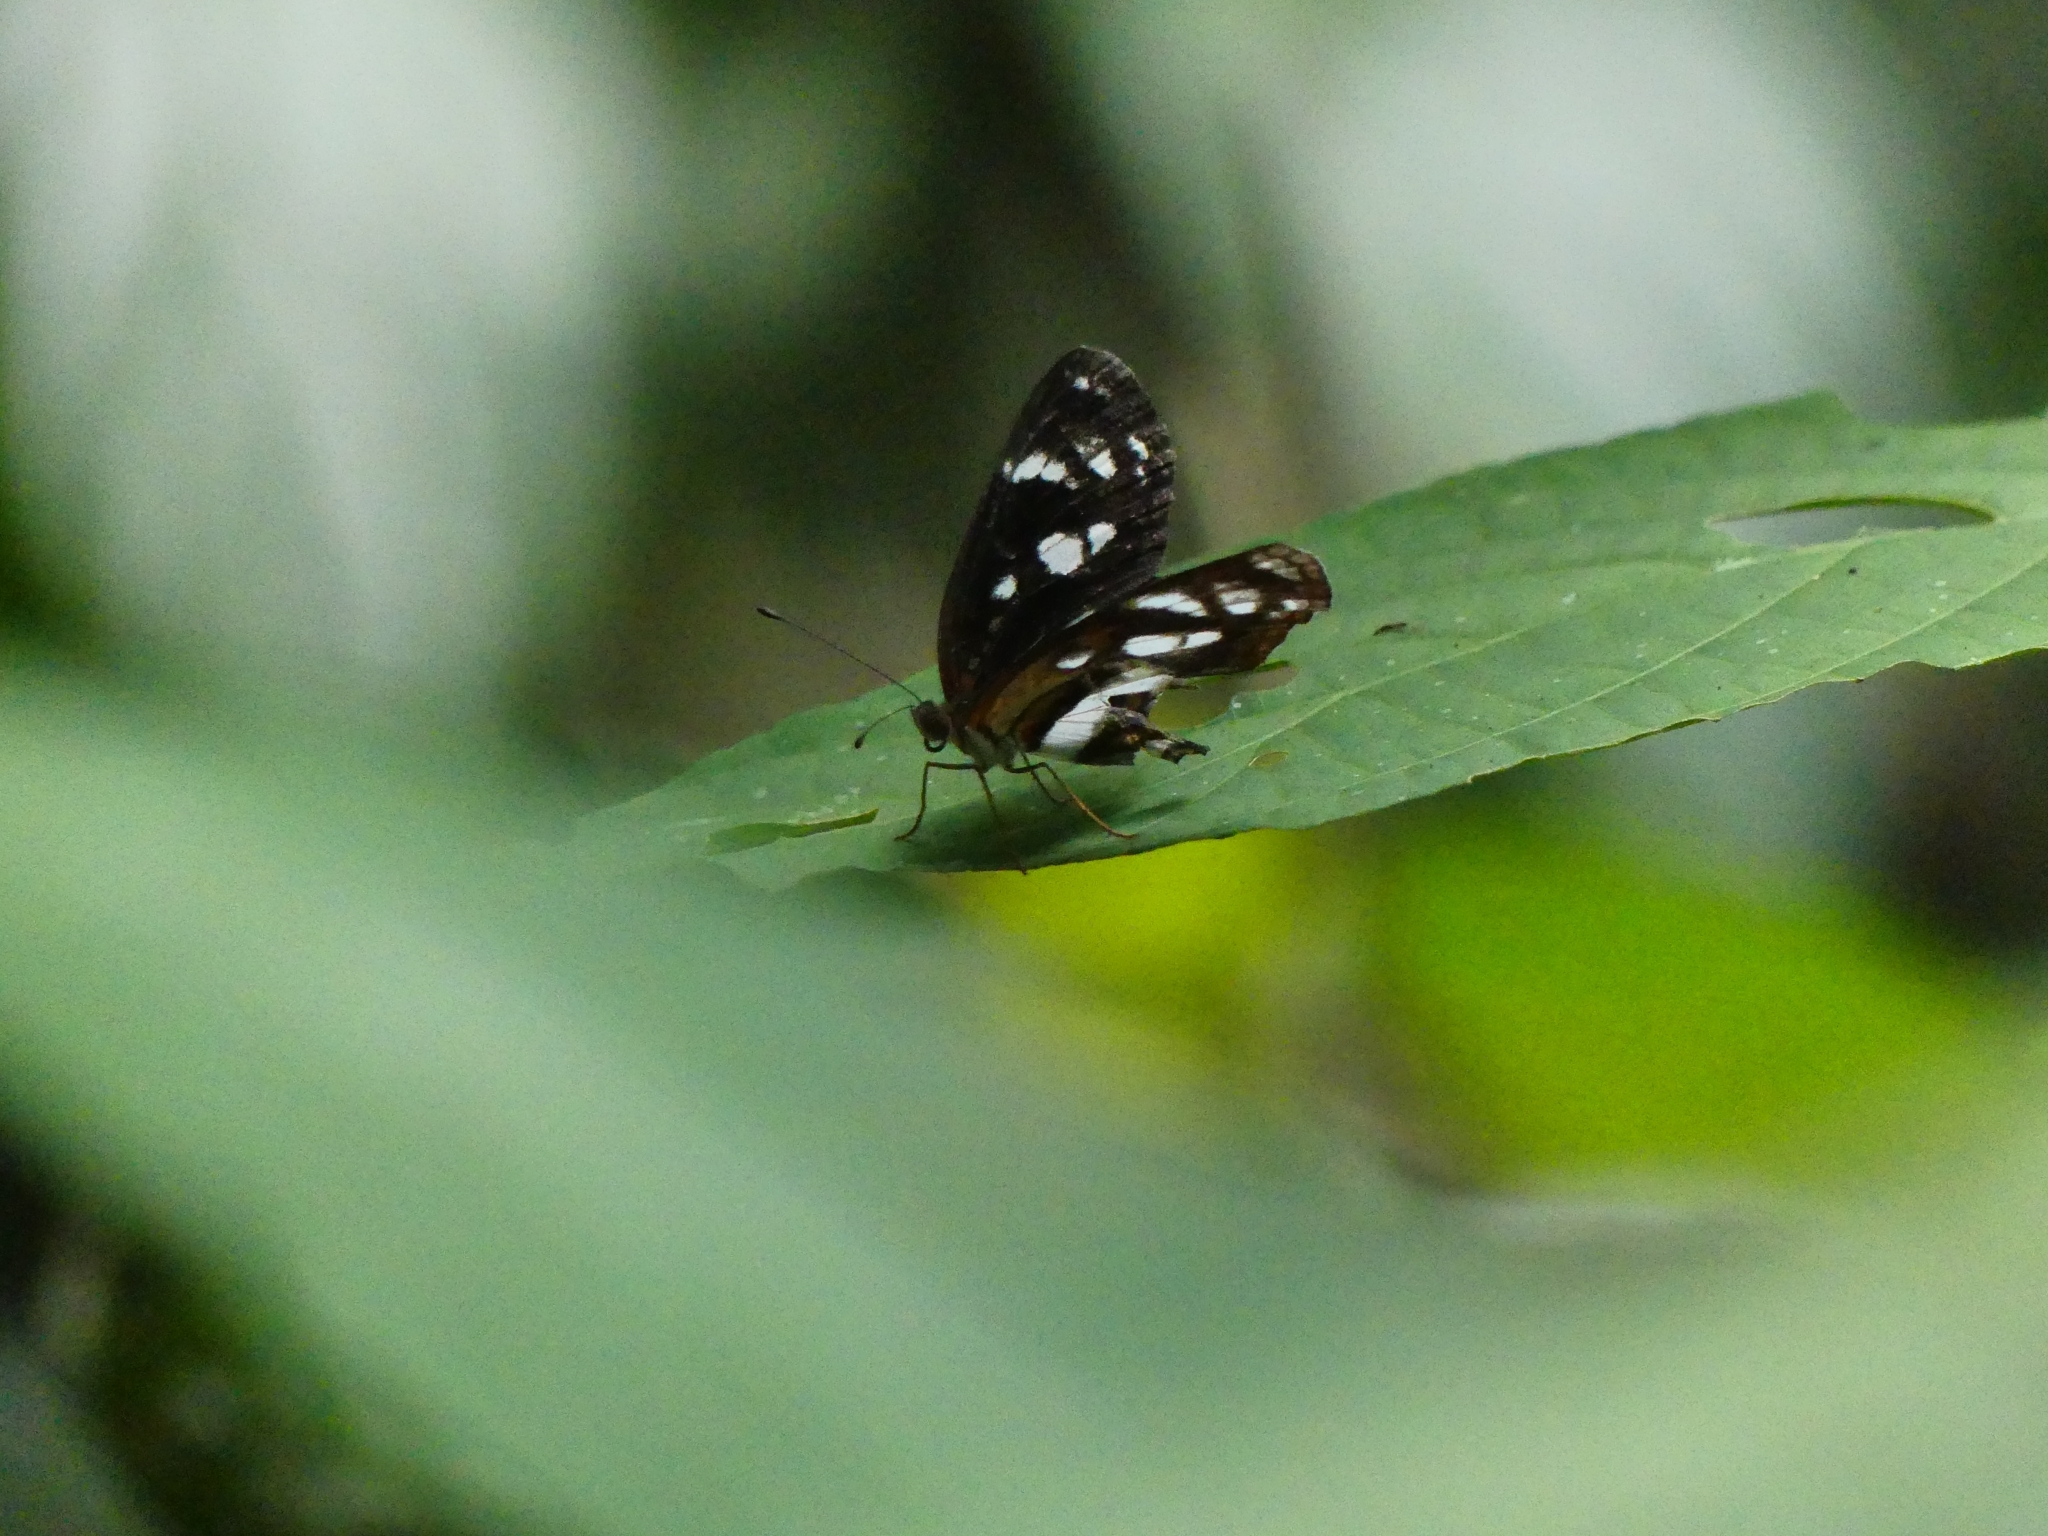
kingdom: Animalia
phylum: Arthropoda
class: Insecta
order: Lepidoptera
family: Nymphalidae
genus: Eresia
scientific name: Eresia nauplius
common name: Nauplius crescent
